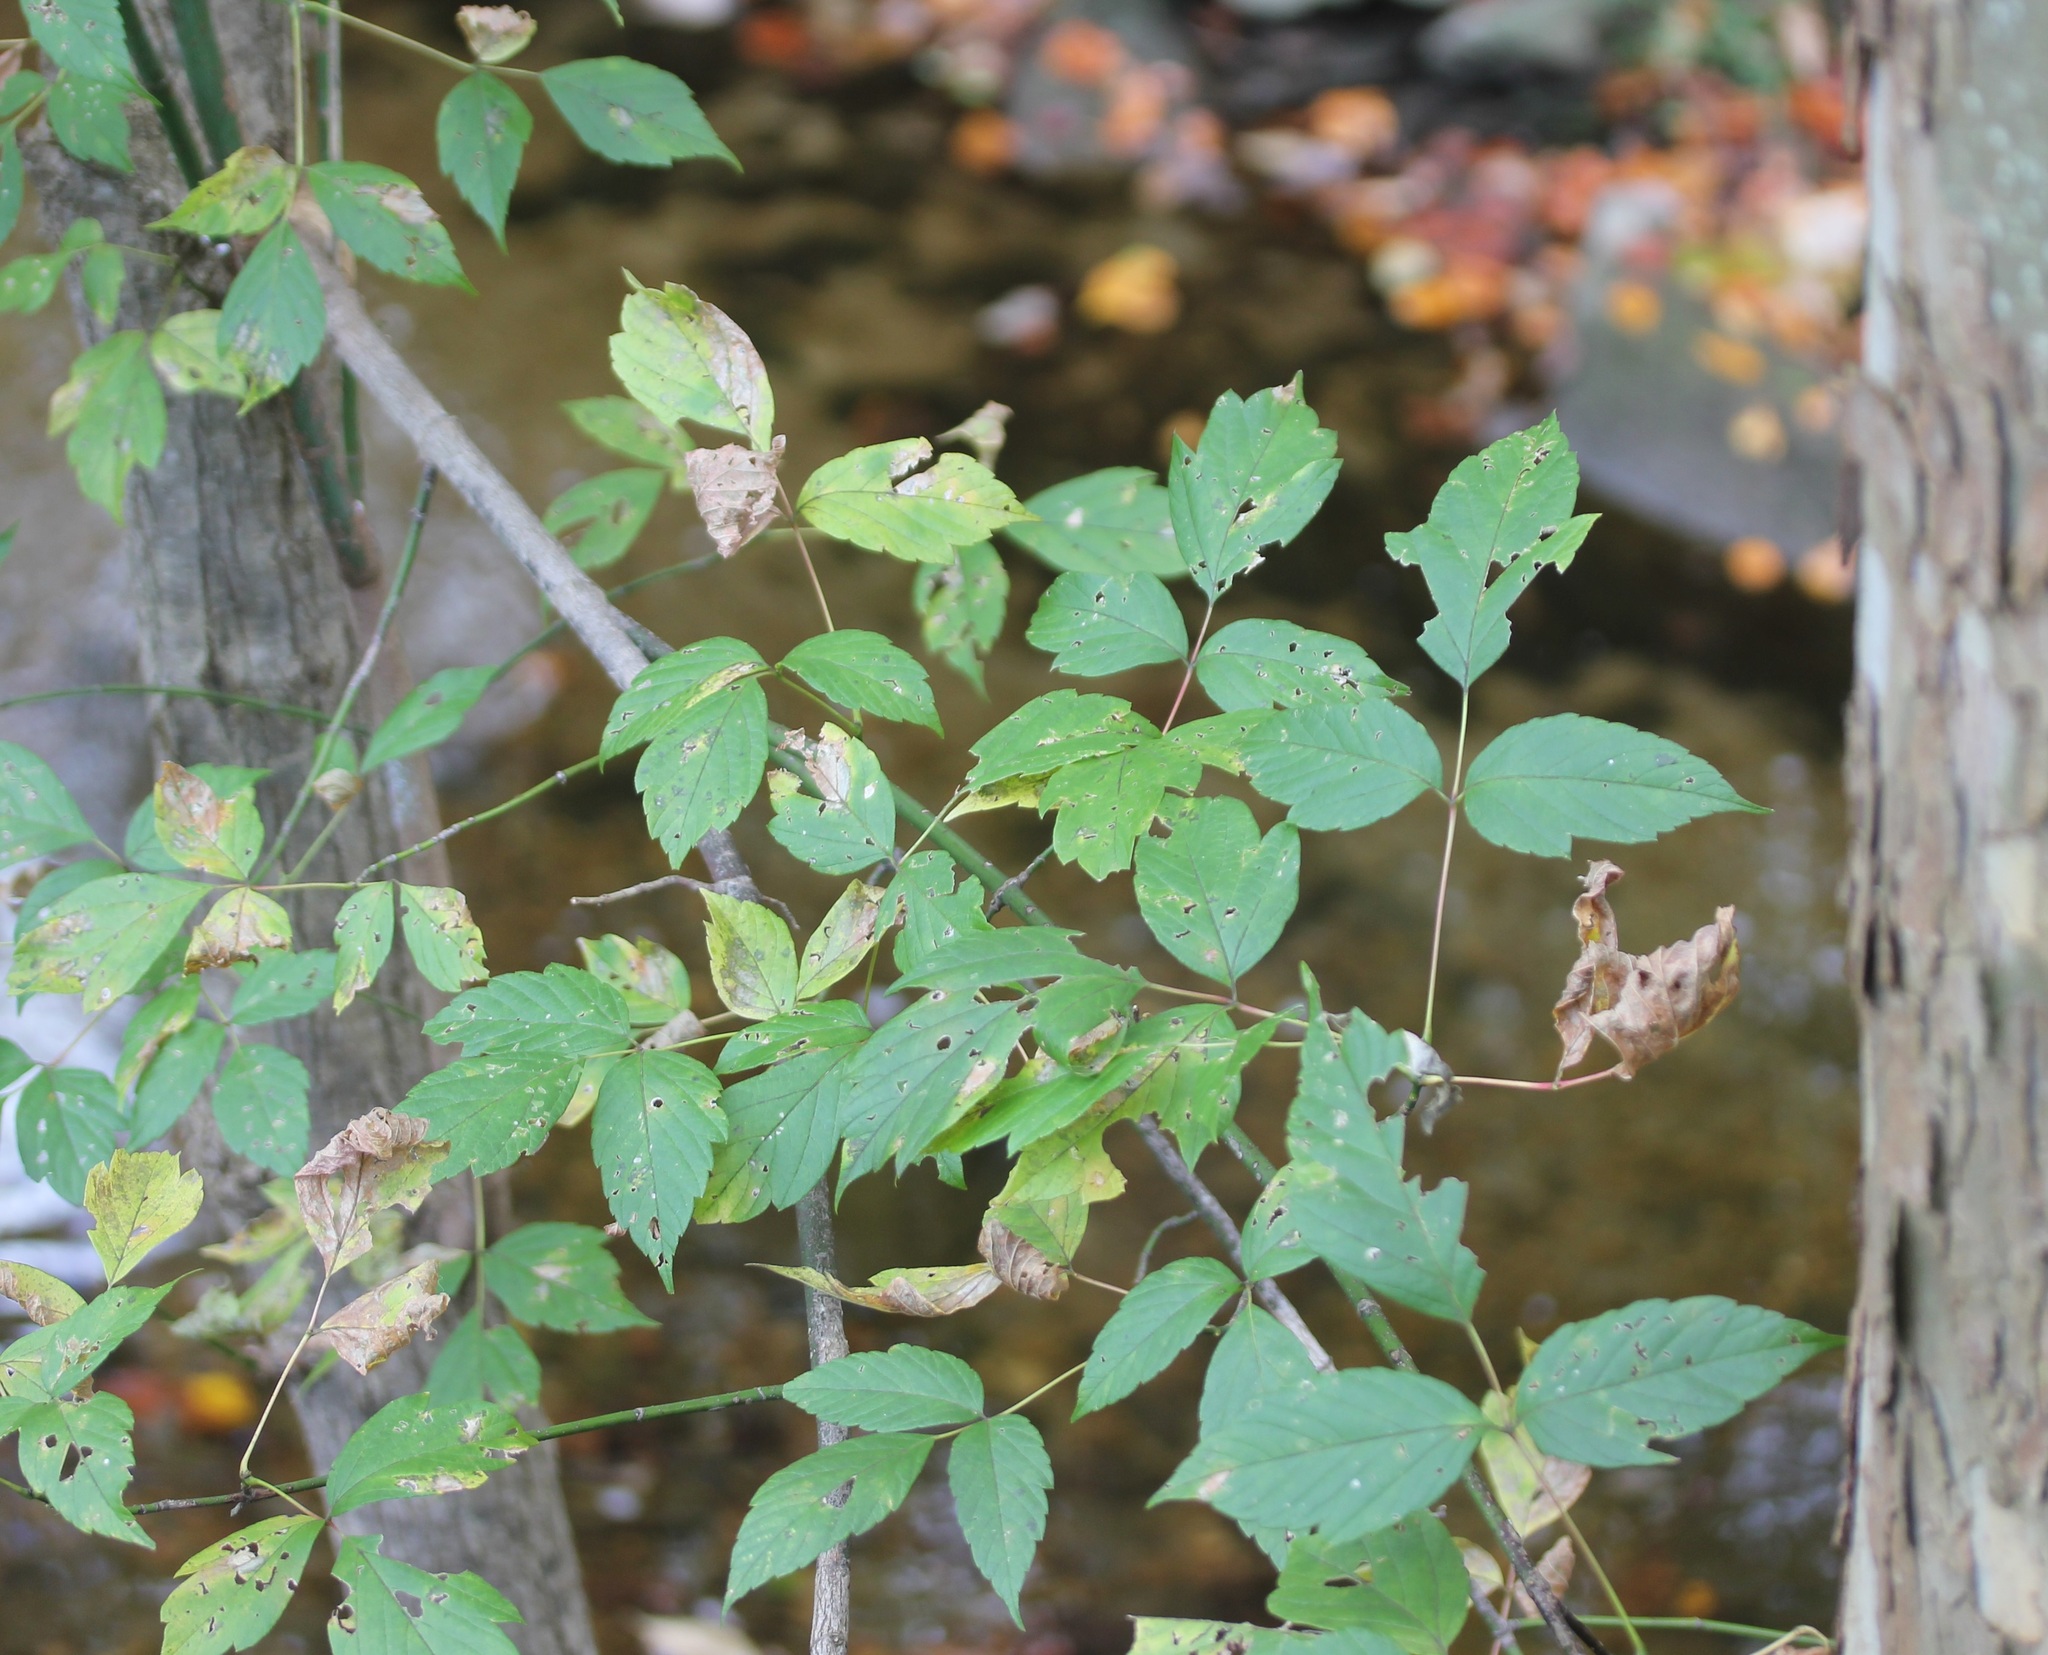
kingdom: Plantae
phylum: Tracheophyta
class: Magnoliopsida
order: Sapindales
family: Sapindaceae
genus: Acer
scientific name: Acer negundo
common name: Ashleaf maple
